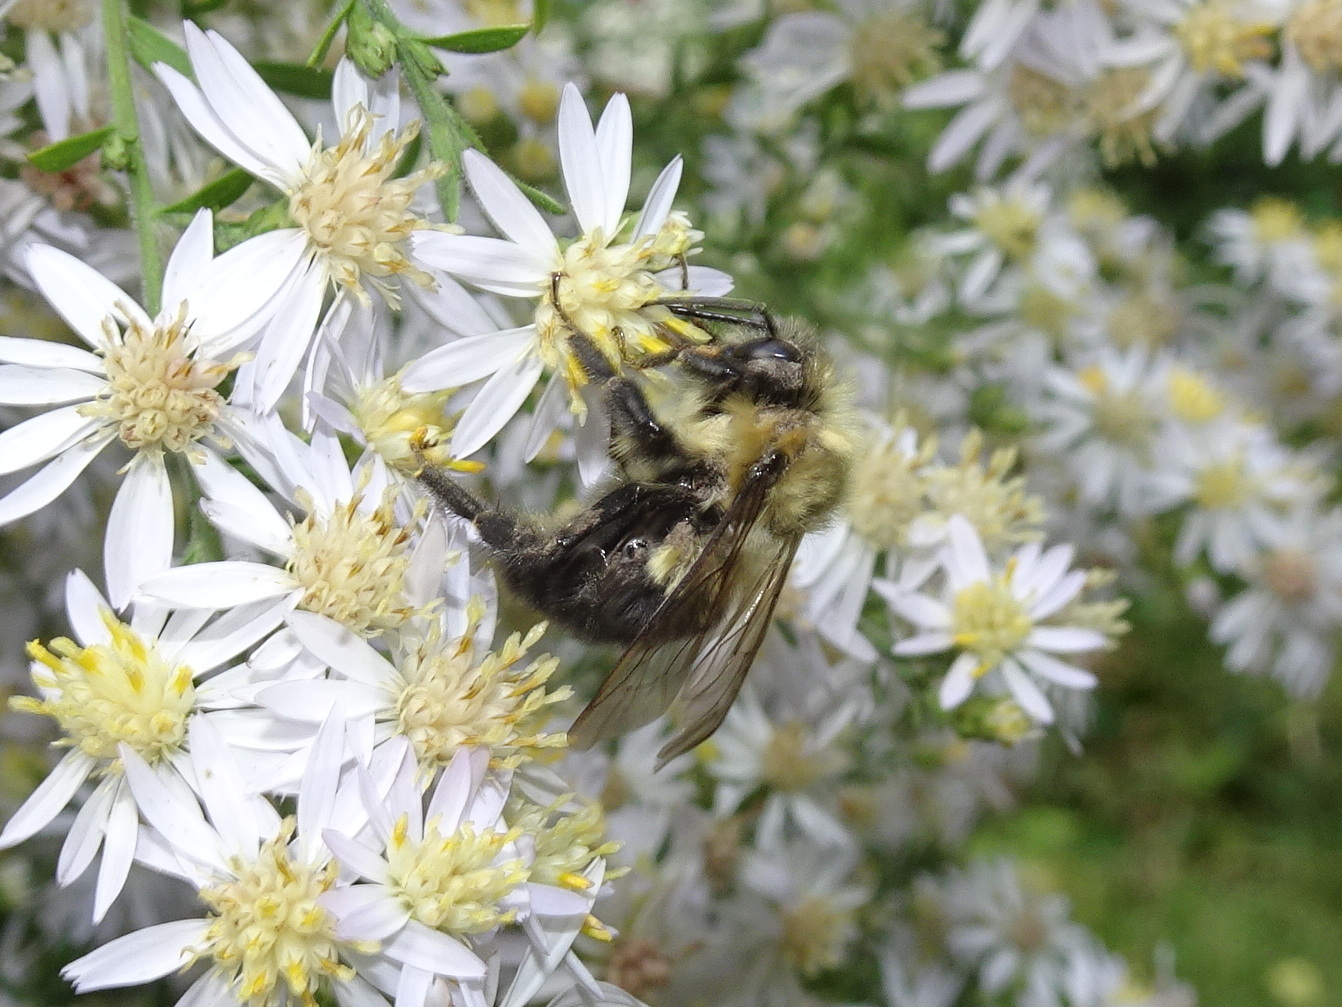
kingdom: Animalia
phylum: Arthropoda
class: Insecta
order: Hymenoptera
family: Apidae
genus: Bombus
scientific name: Bombus impatiens
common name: Common eastern bumble bee
